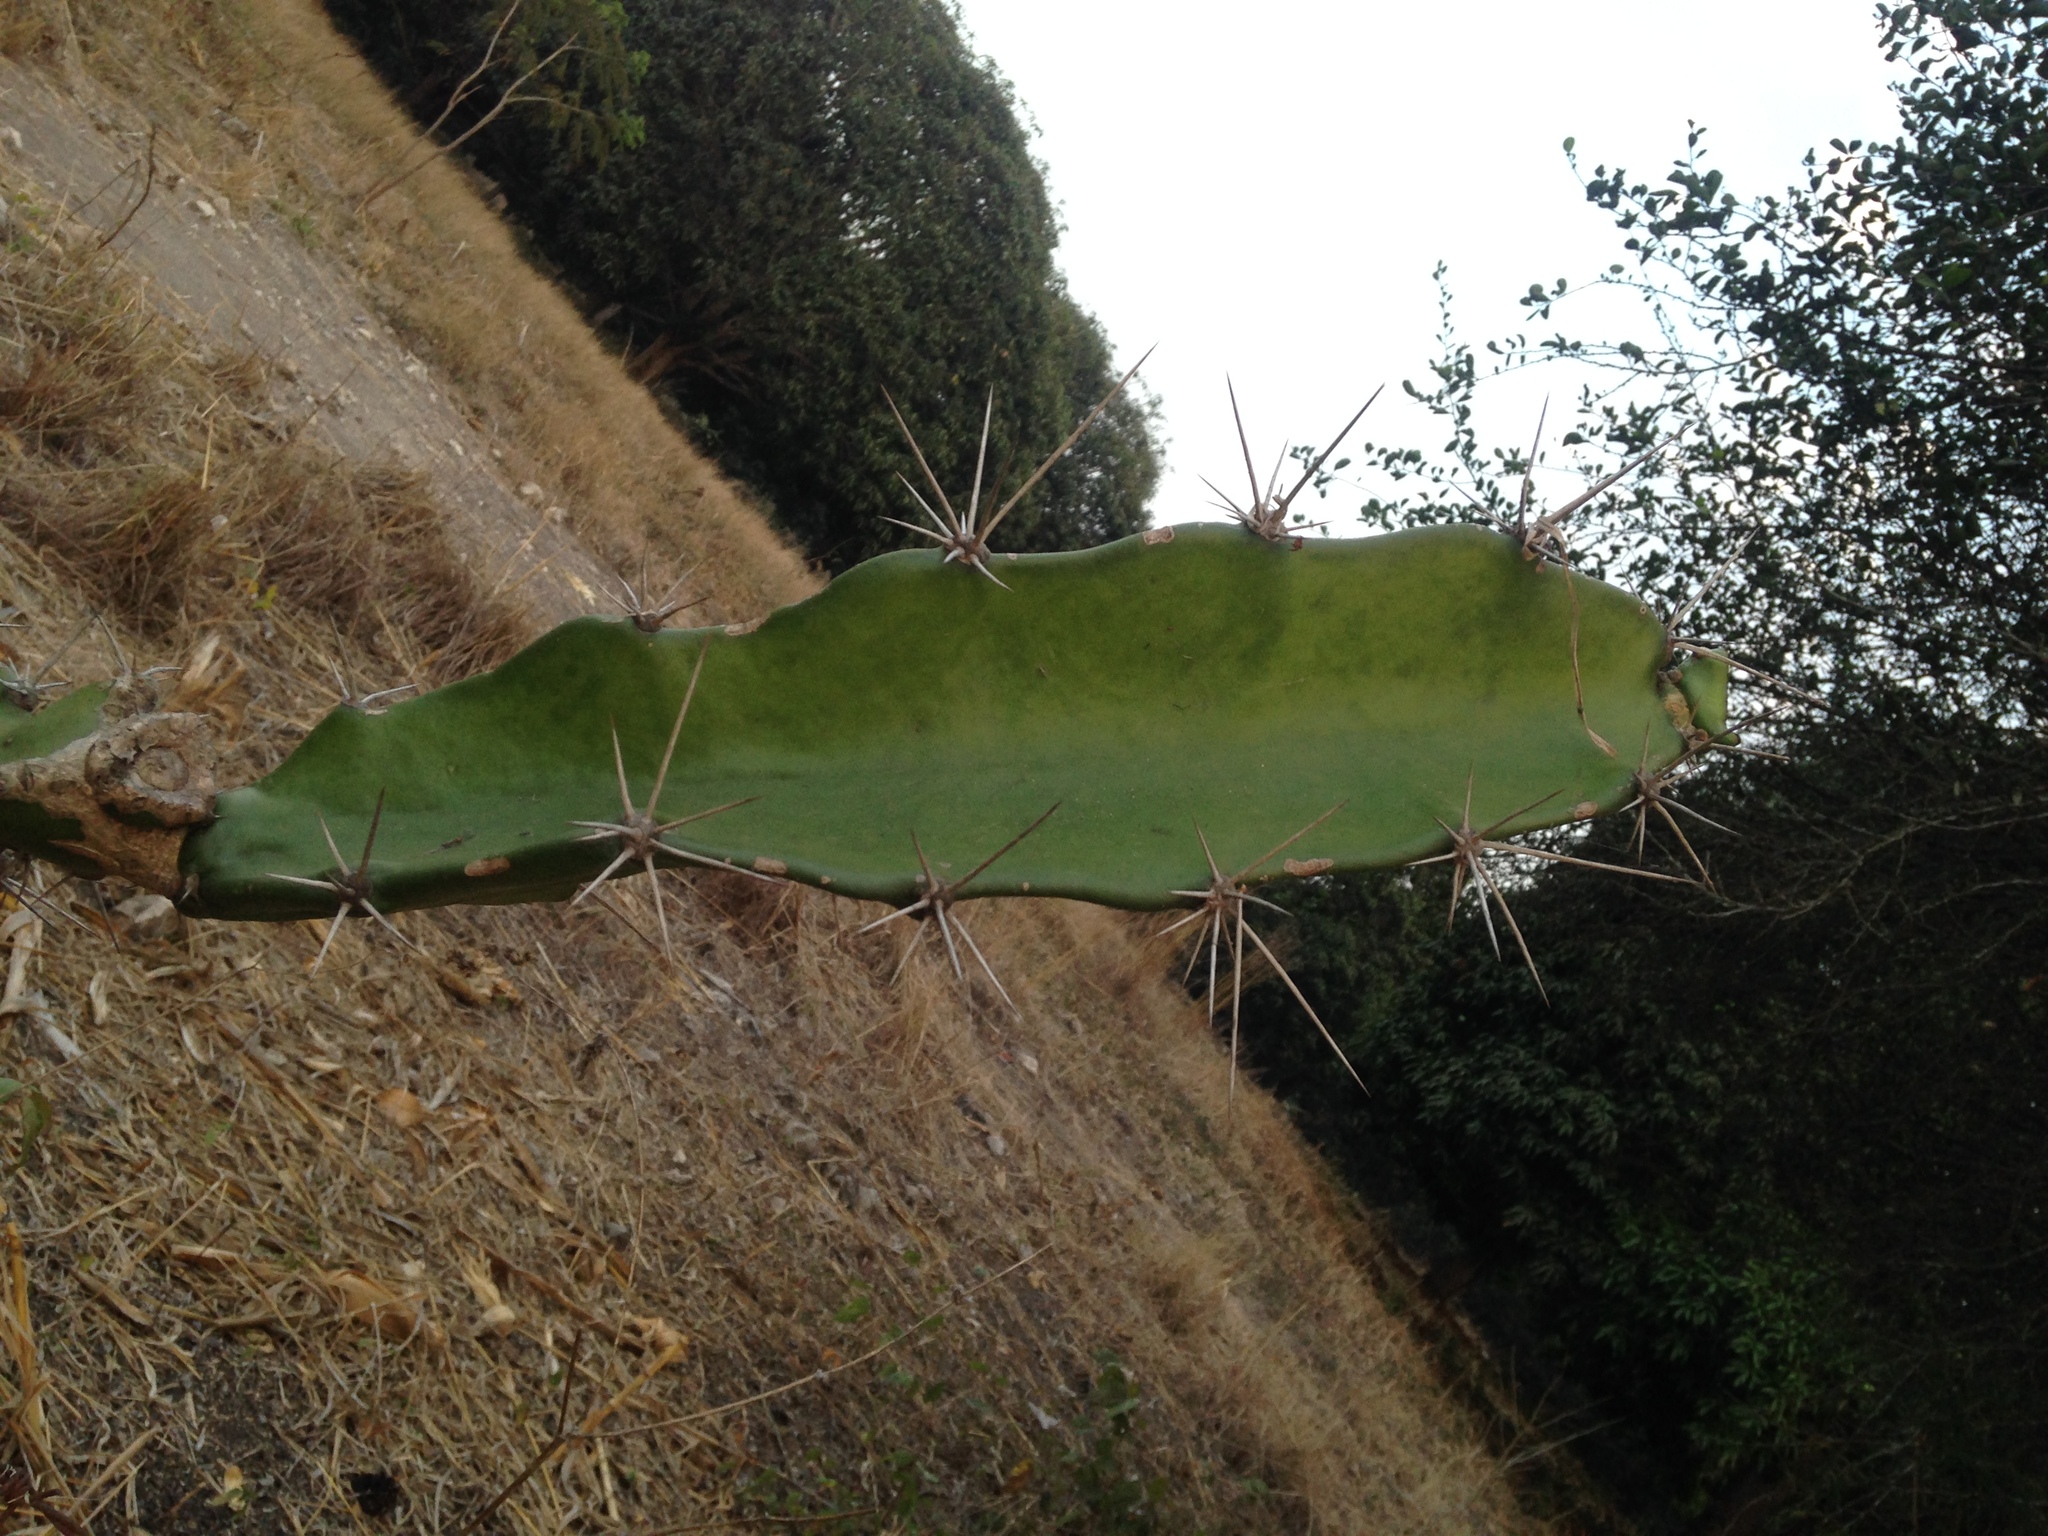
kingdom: Plantae
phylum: Tracheophyta
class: Magnoliopsida
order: Caryophyllales
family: Cactaceae
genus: Acanthocereus
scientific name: Acanthocereus tetragonus
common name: Triangle cactus
